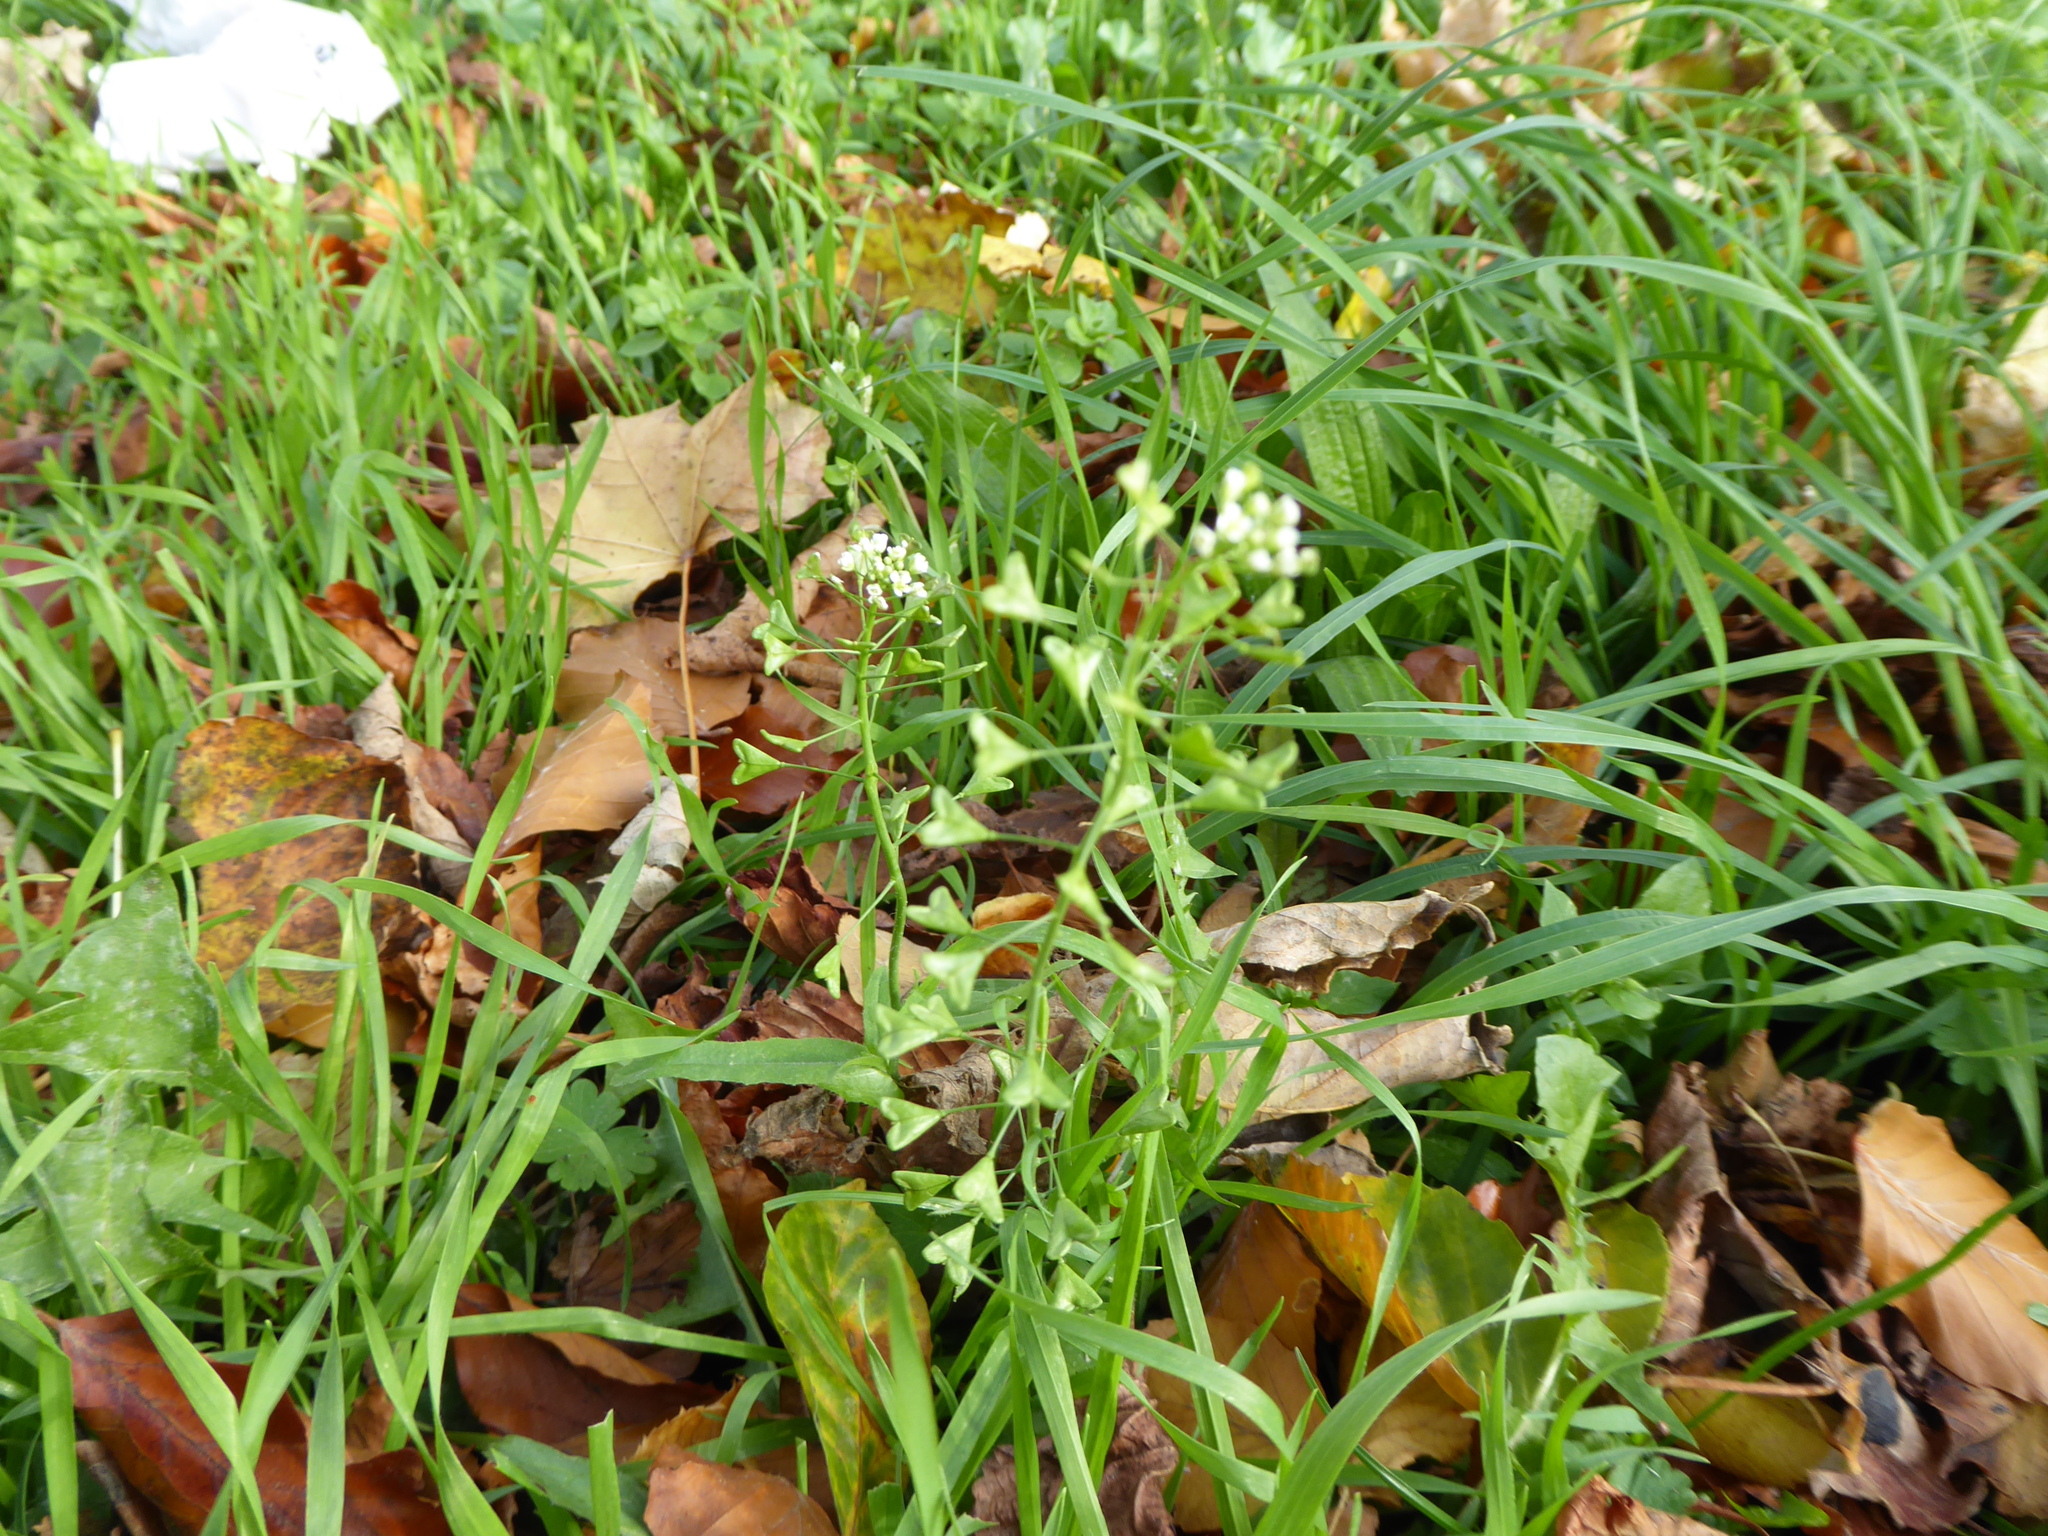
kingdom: Plantae
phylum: Tracheophyta
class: Magnoliopsida
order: Brassicales
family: Brassicaceae
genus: Capsella
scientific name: Capsella bursa-pastoris
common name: Shepherd's purse
